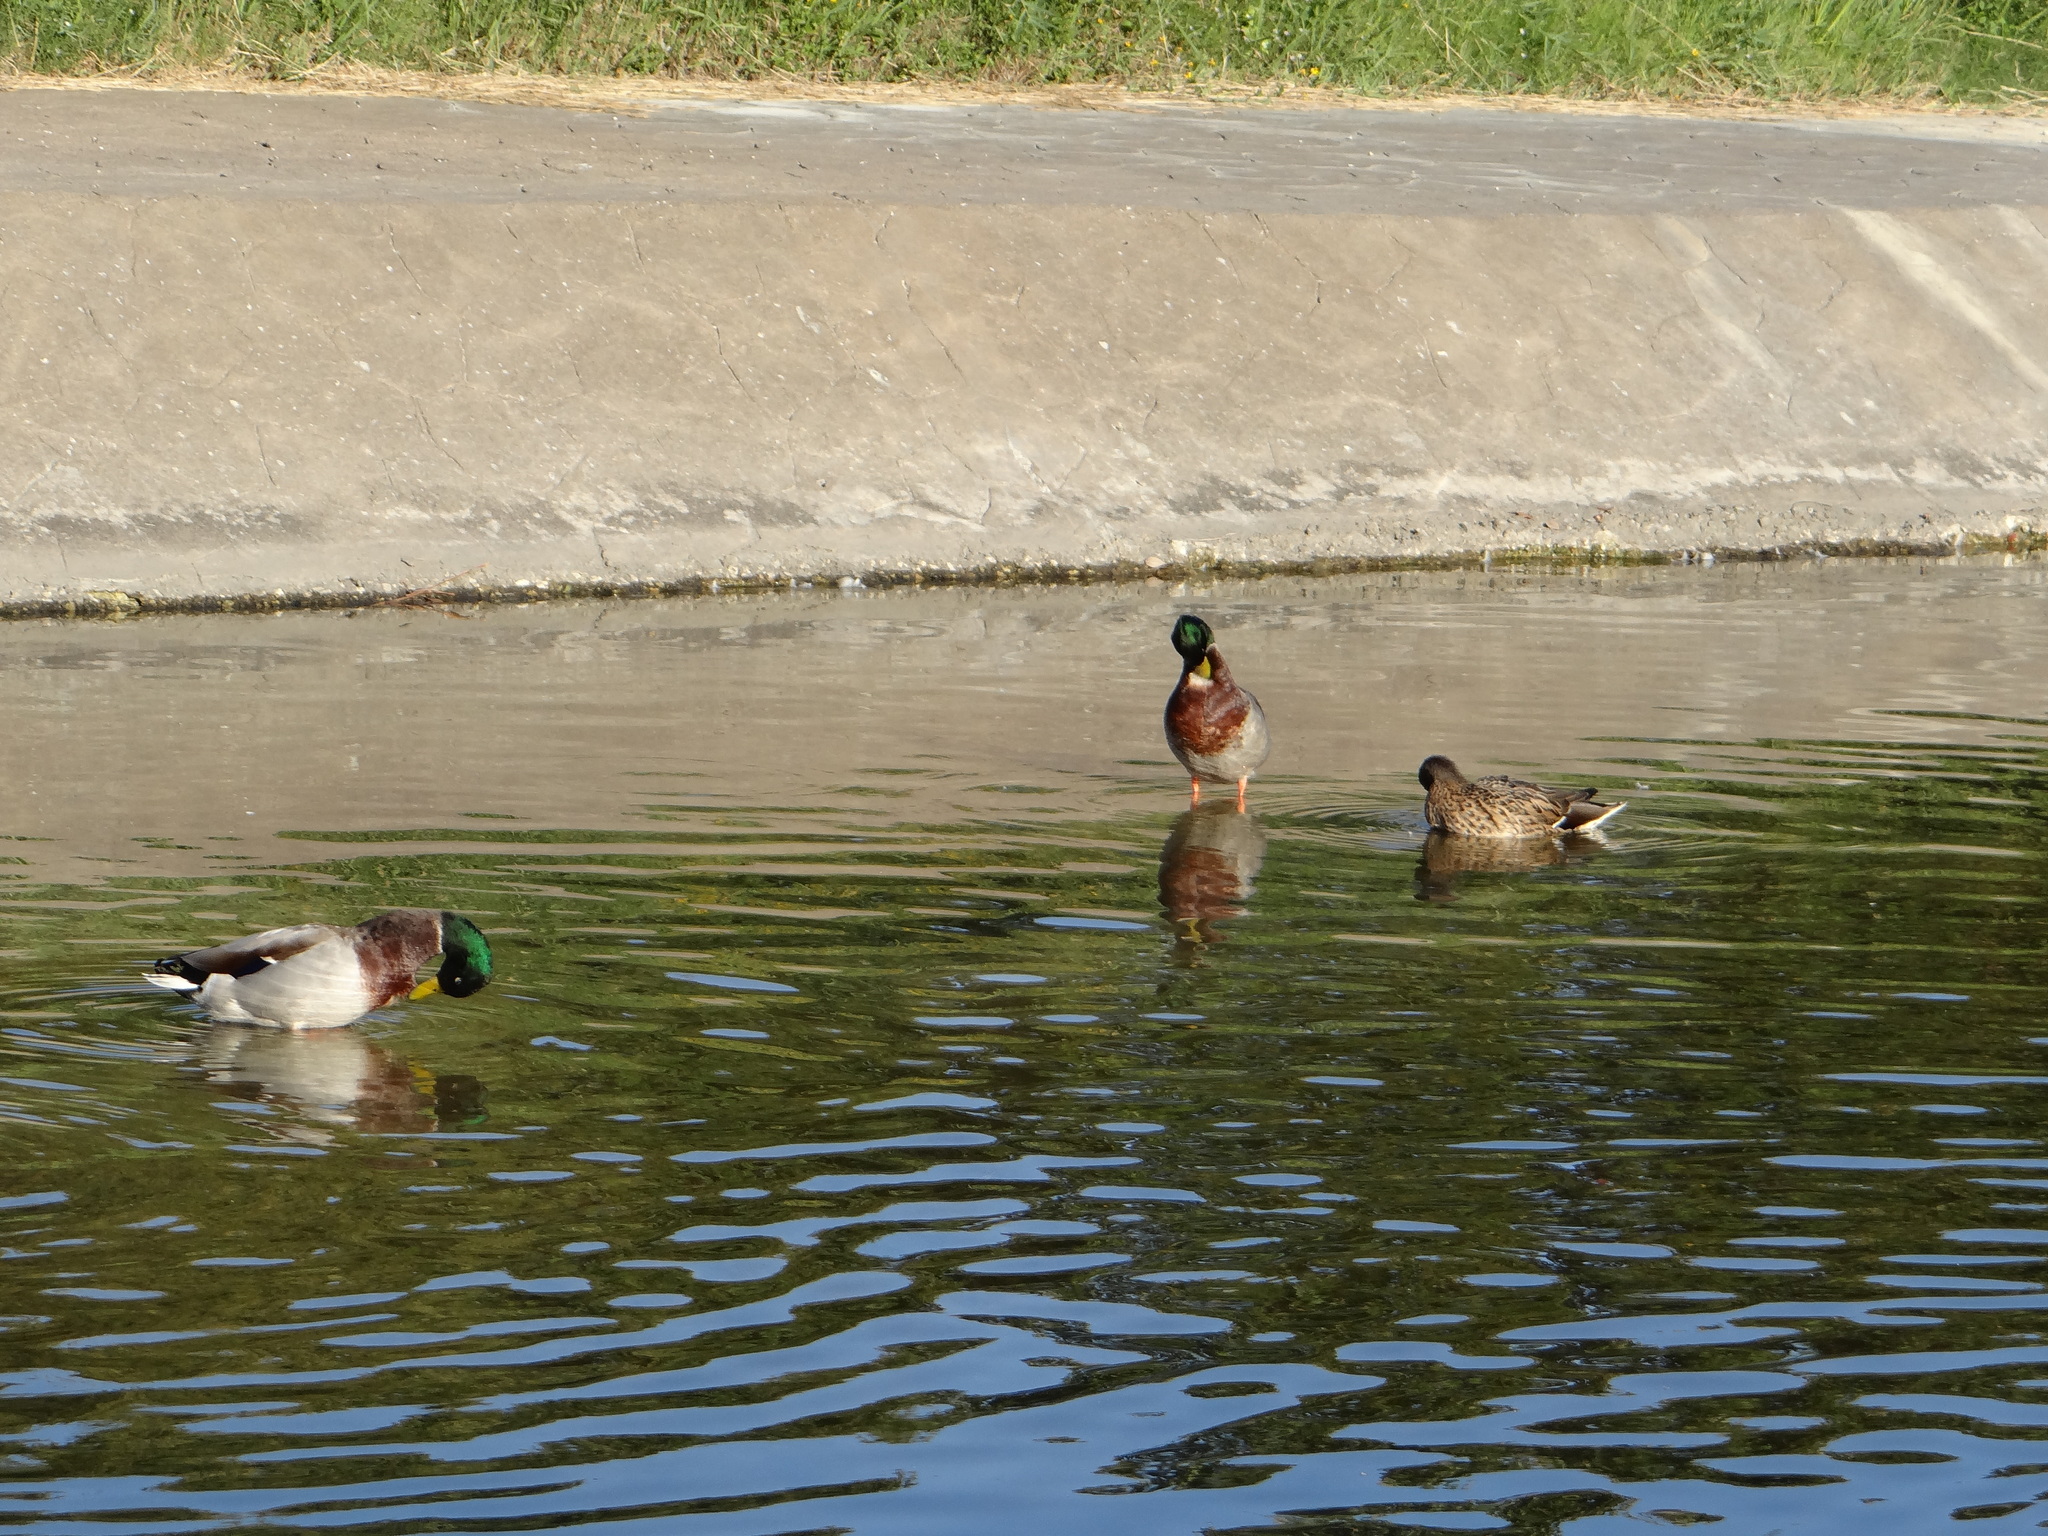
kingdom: Animalia
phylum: Chordata
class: Aves
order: Anseriformes
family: Anatidae
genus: Anas
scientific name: Anas platyrhynchos
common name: Mallard
